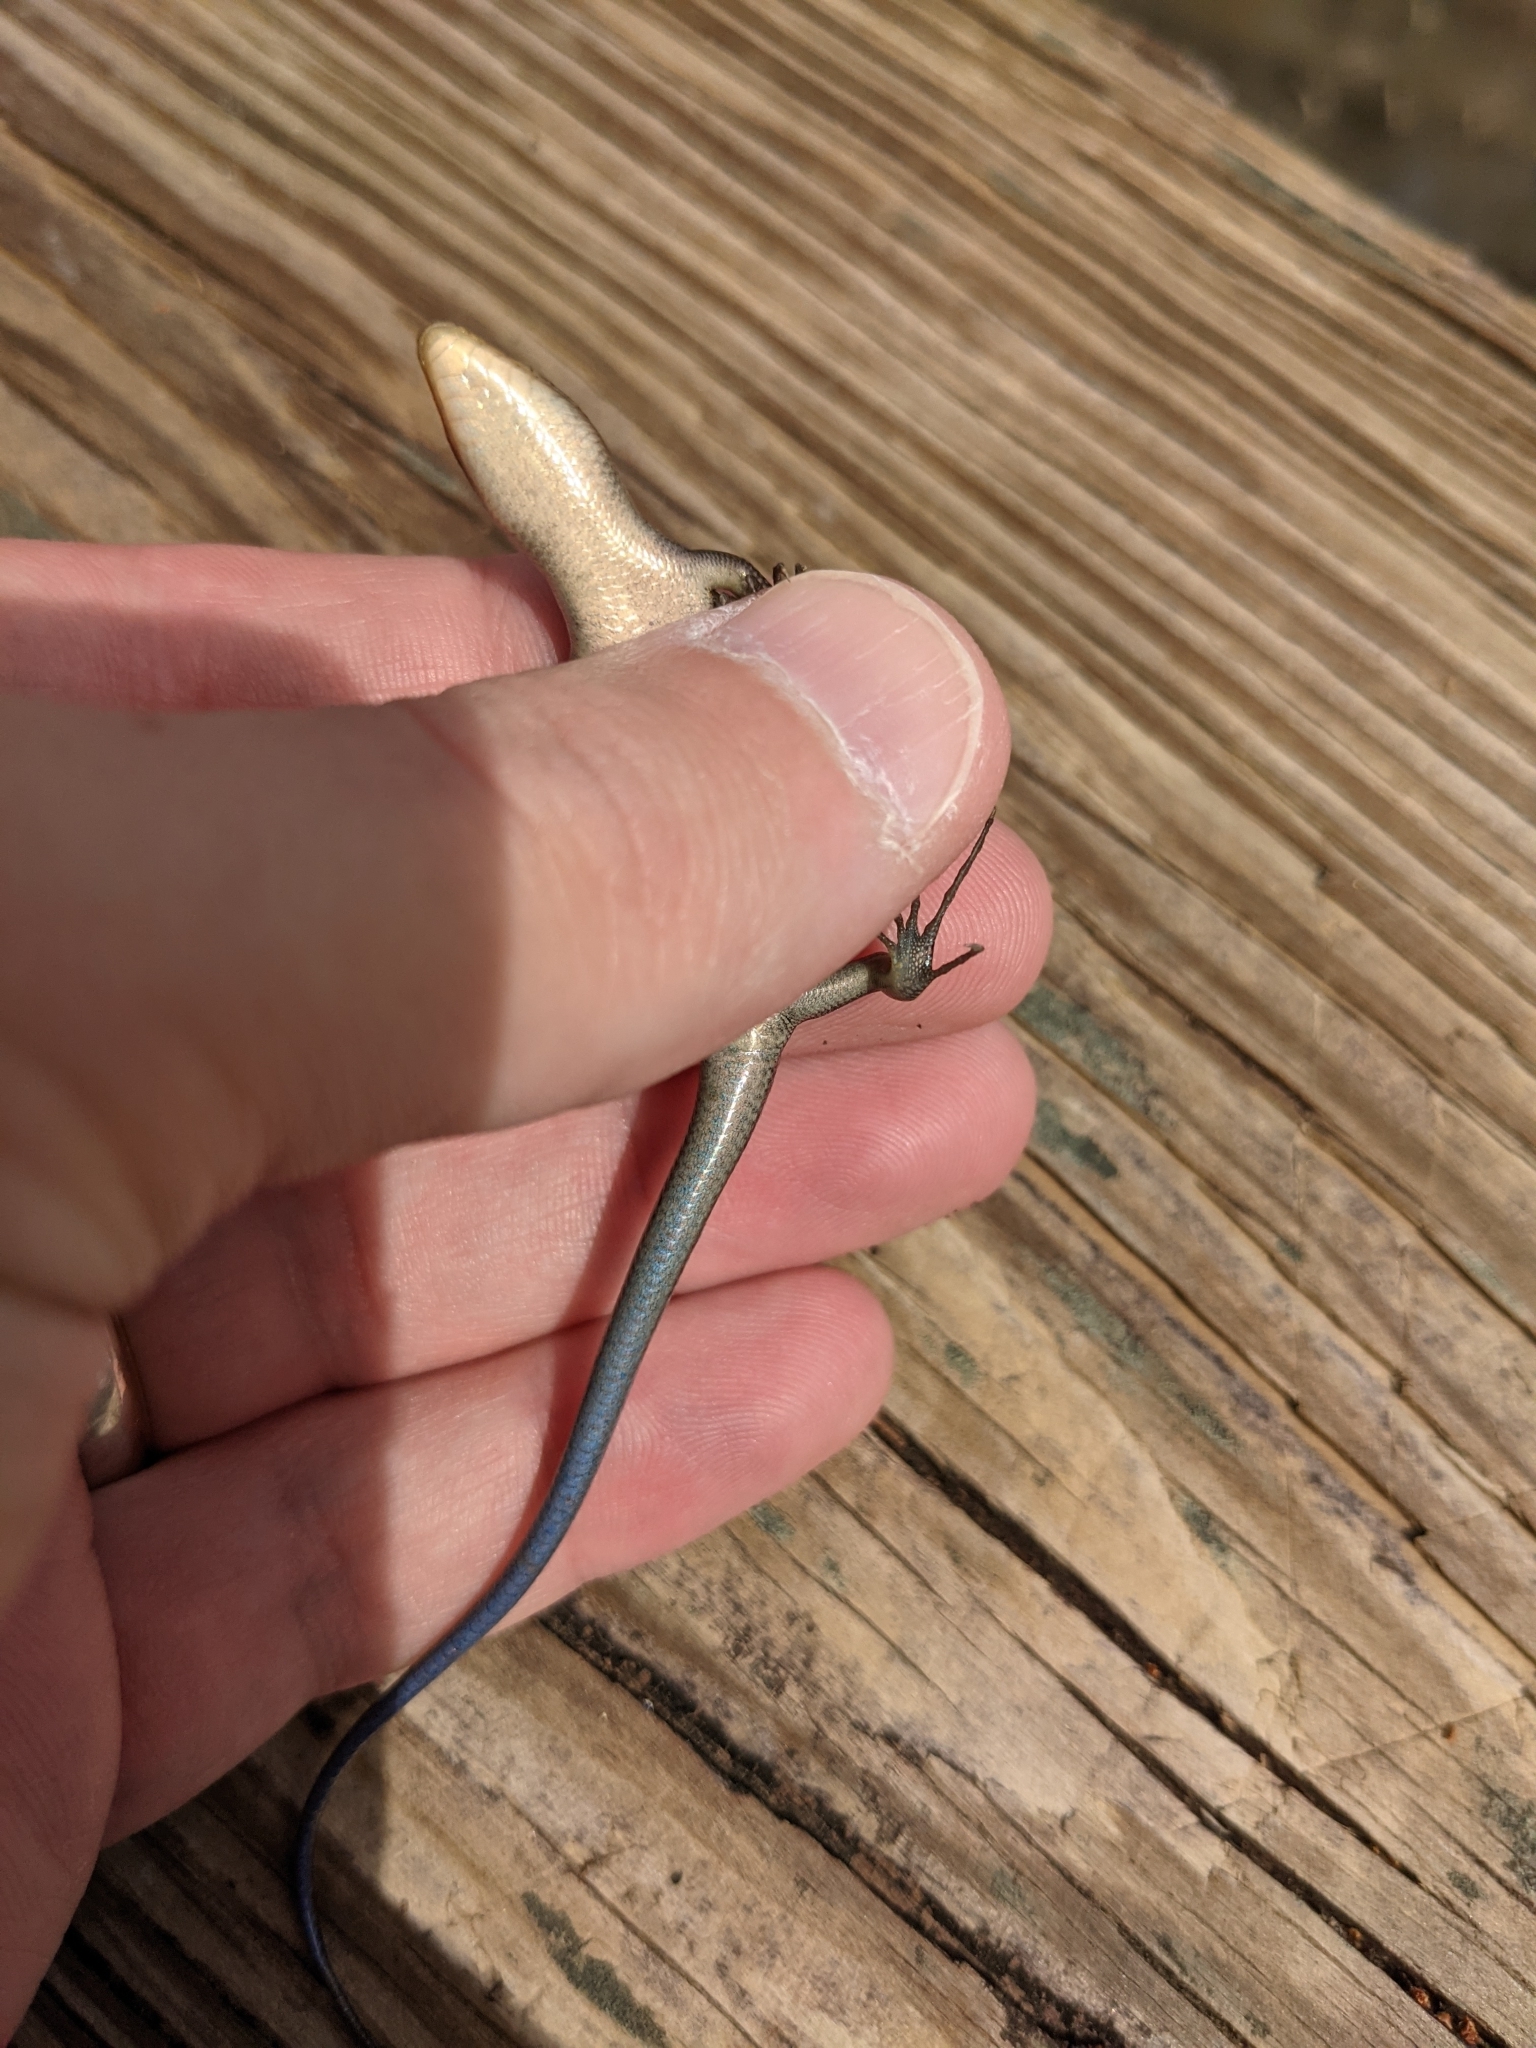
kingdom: Animalia
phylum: Chordata
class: Squamata
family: Scincidae
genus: Plestiodon
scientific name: Plestiodon fasciatus
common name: Five-lined skink
